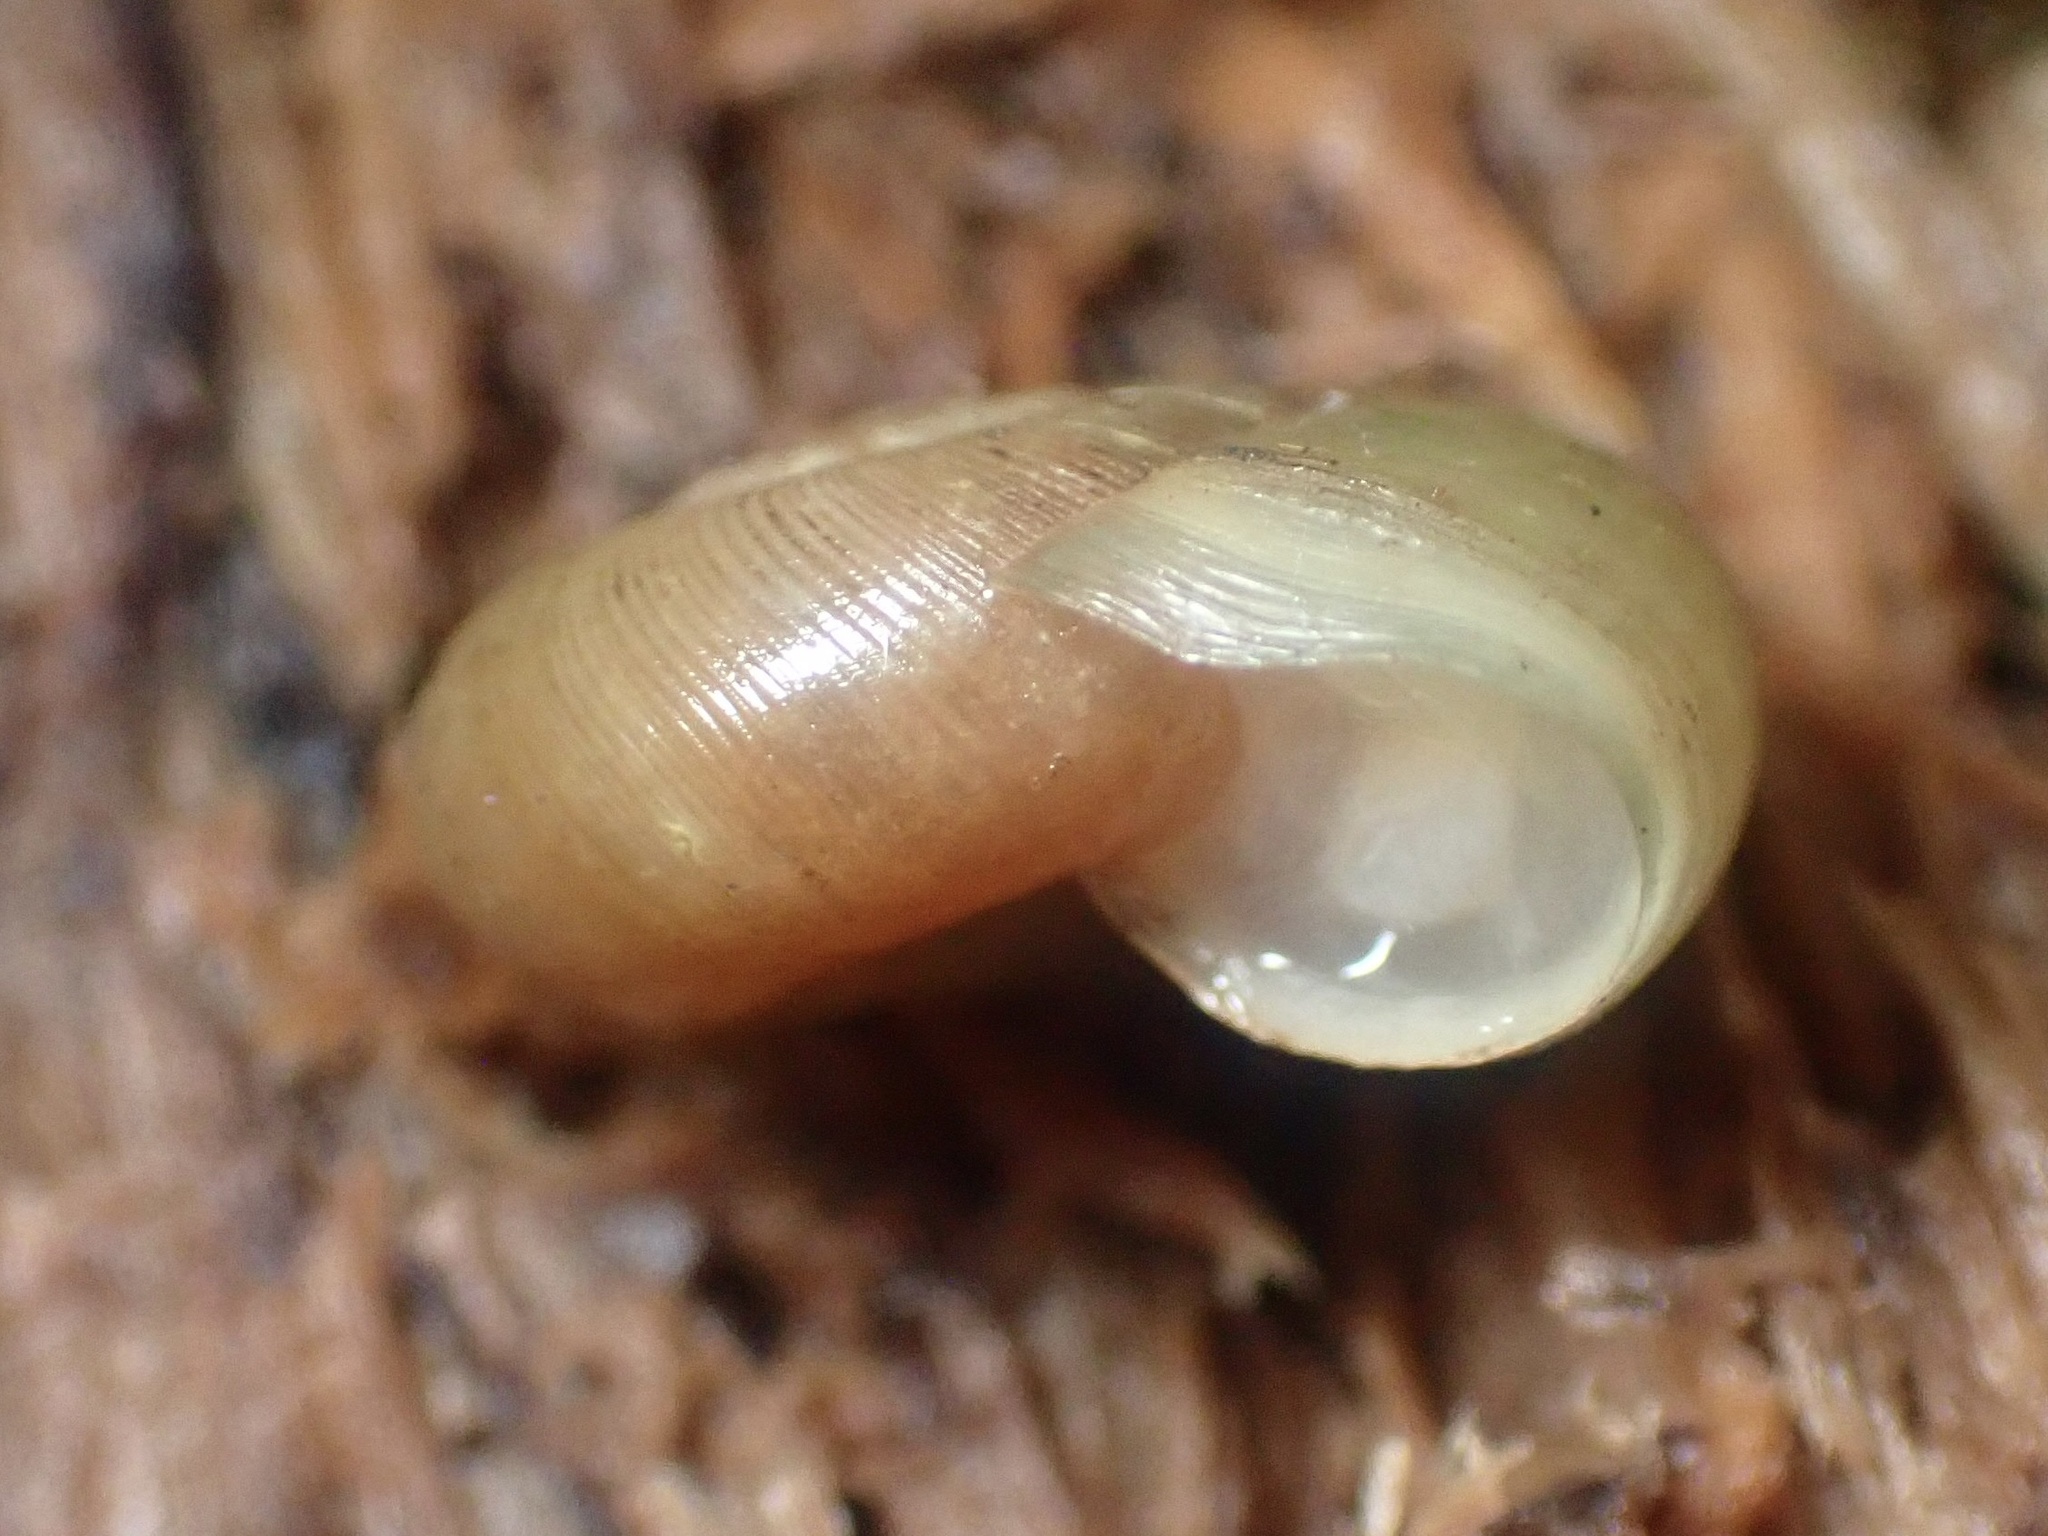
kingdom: Animalia
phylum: Mollusca
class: Gastropoda
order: Stylommatophora
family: Haplotrematidae
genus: Ancotrema
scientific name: Ancotrema sportella
